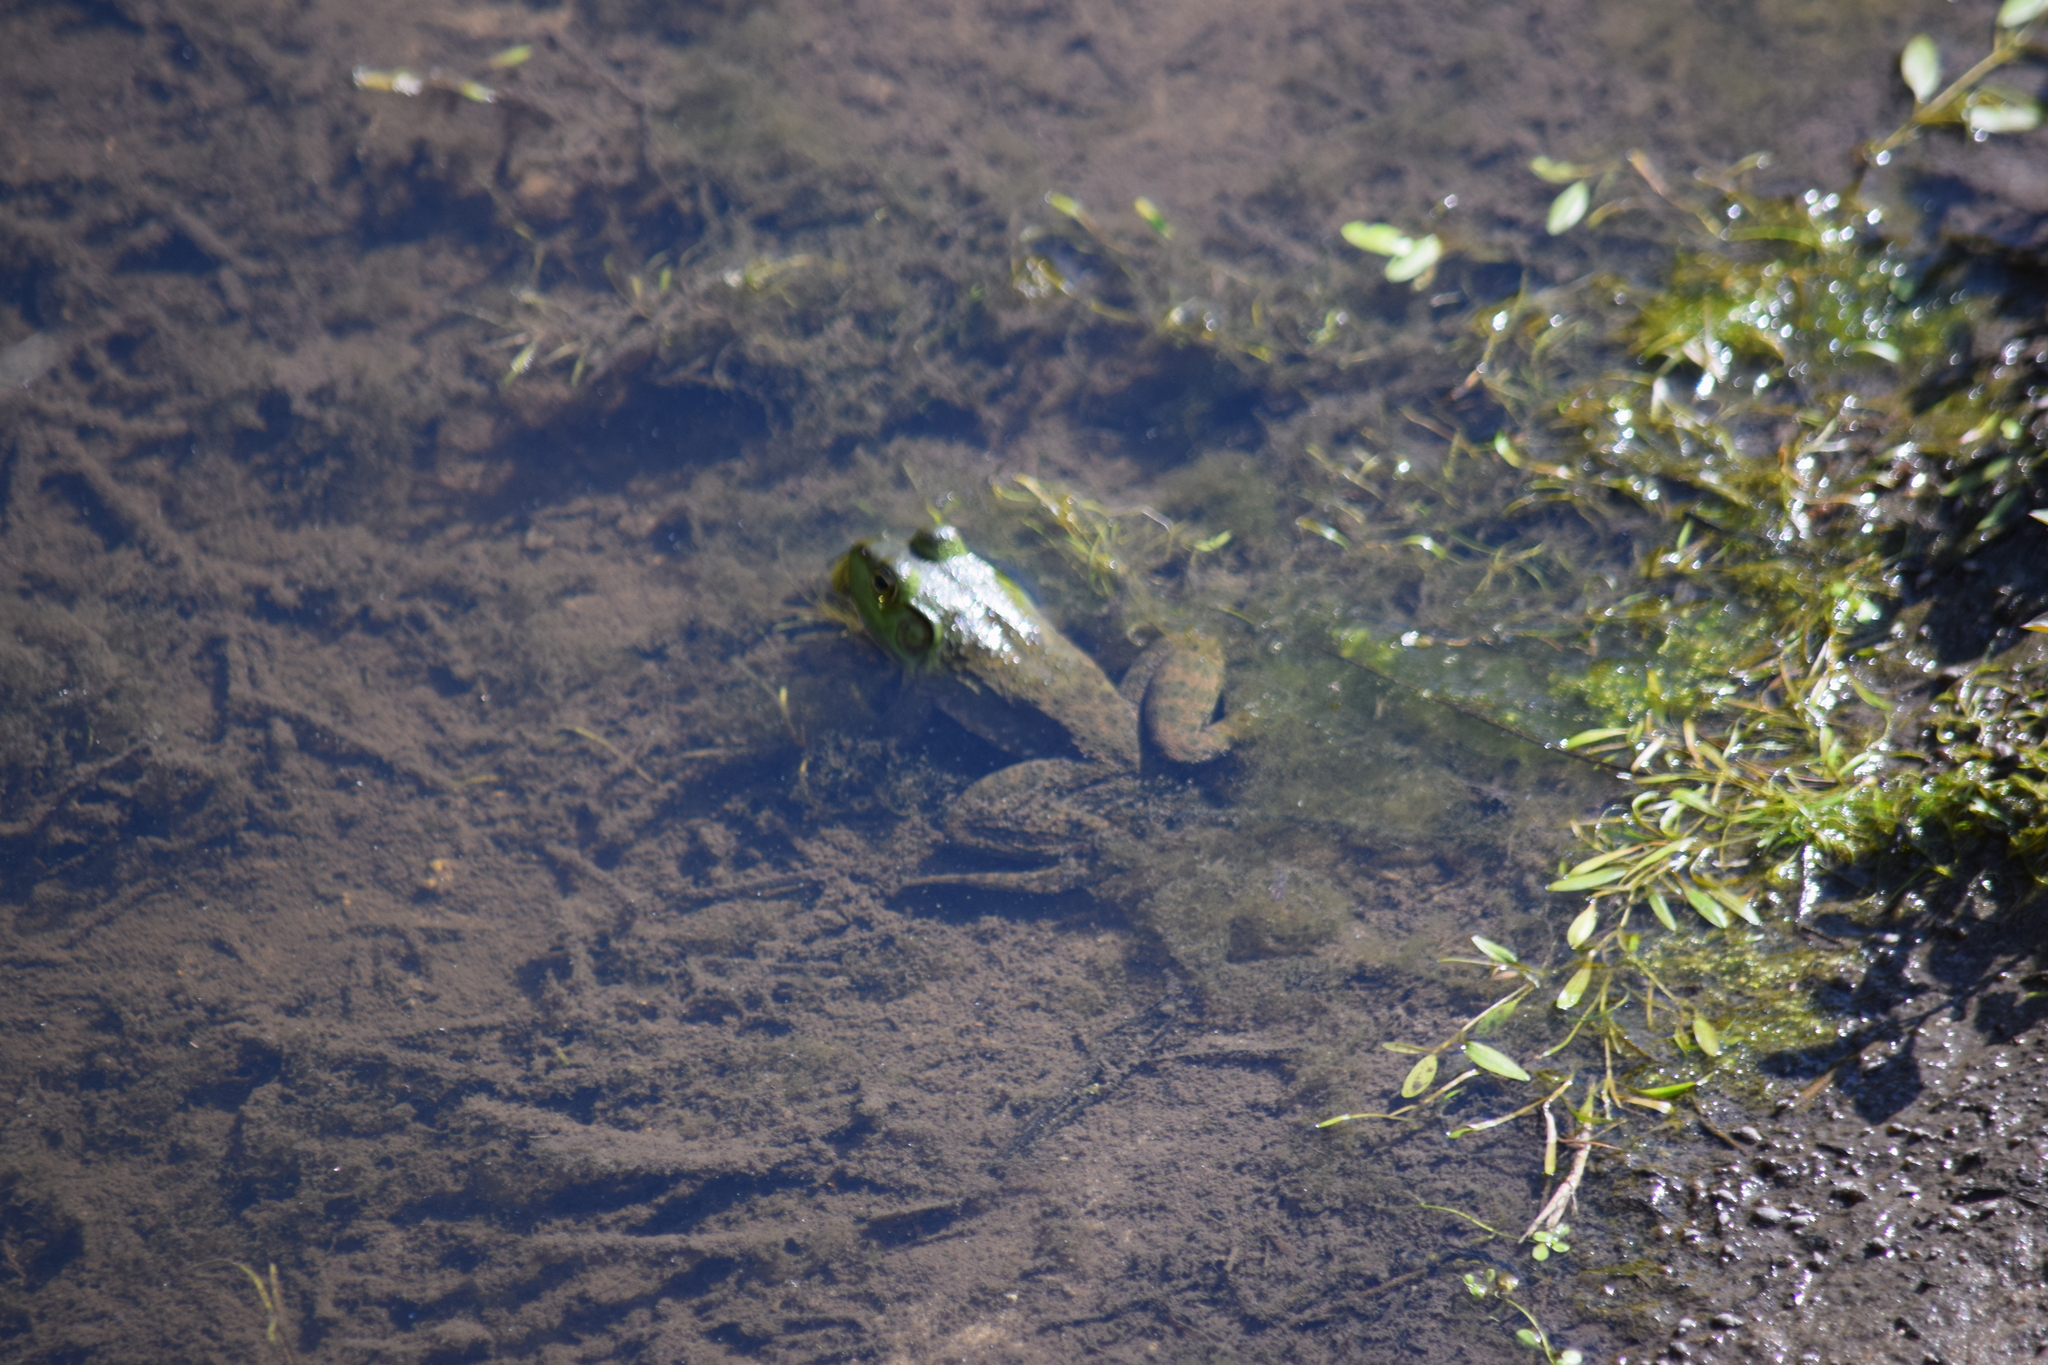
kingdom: Animalia
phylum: Chordata
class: Amphibia
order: Anura
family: Ranidae
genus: Lithobates
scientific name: Lithobates catesbeianus
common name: American bullfrog
